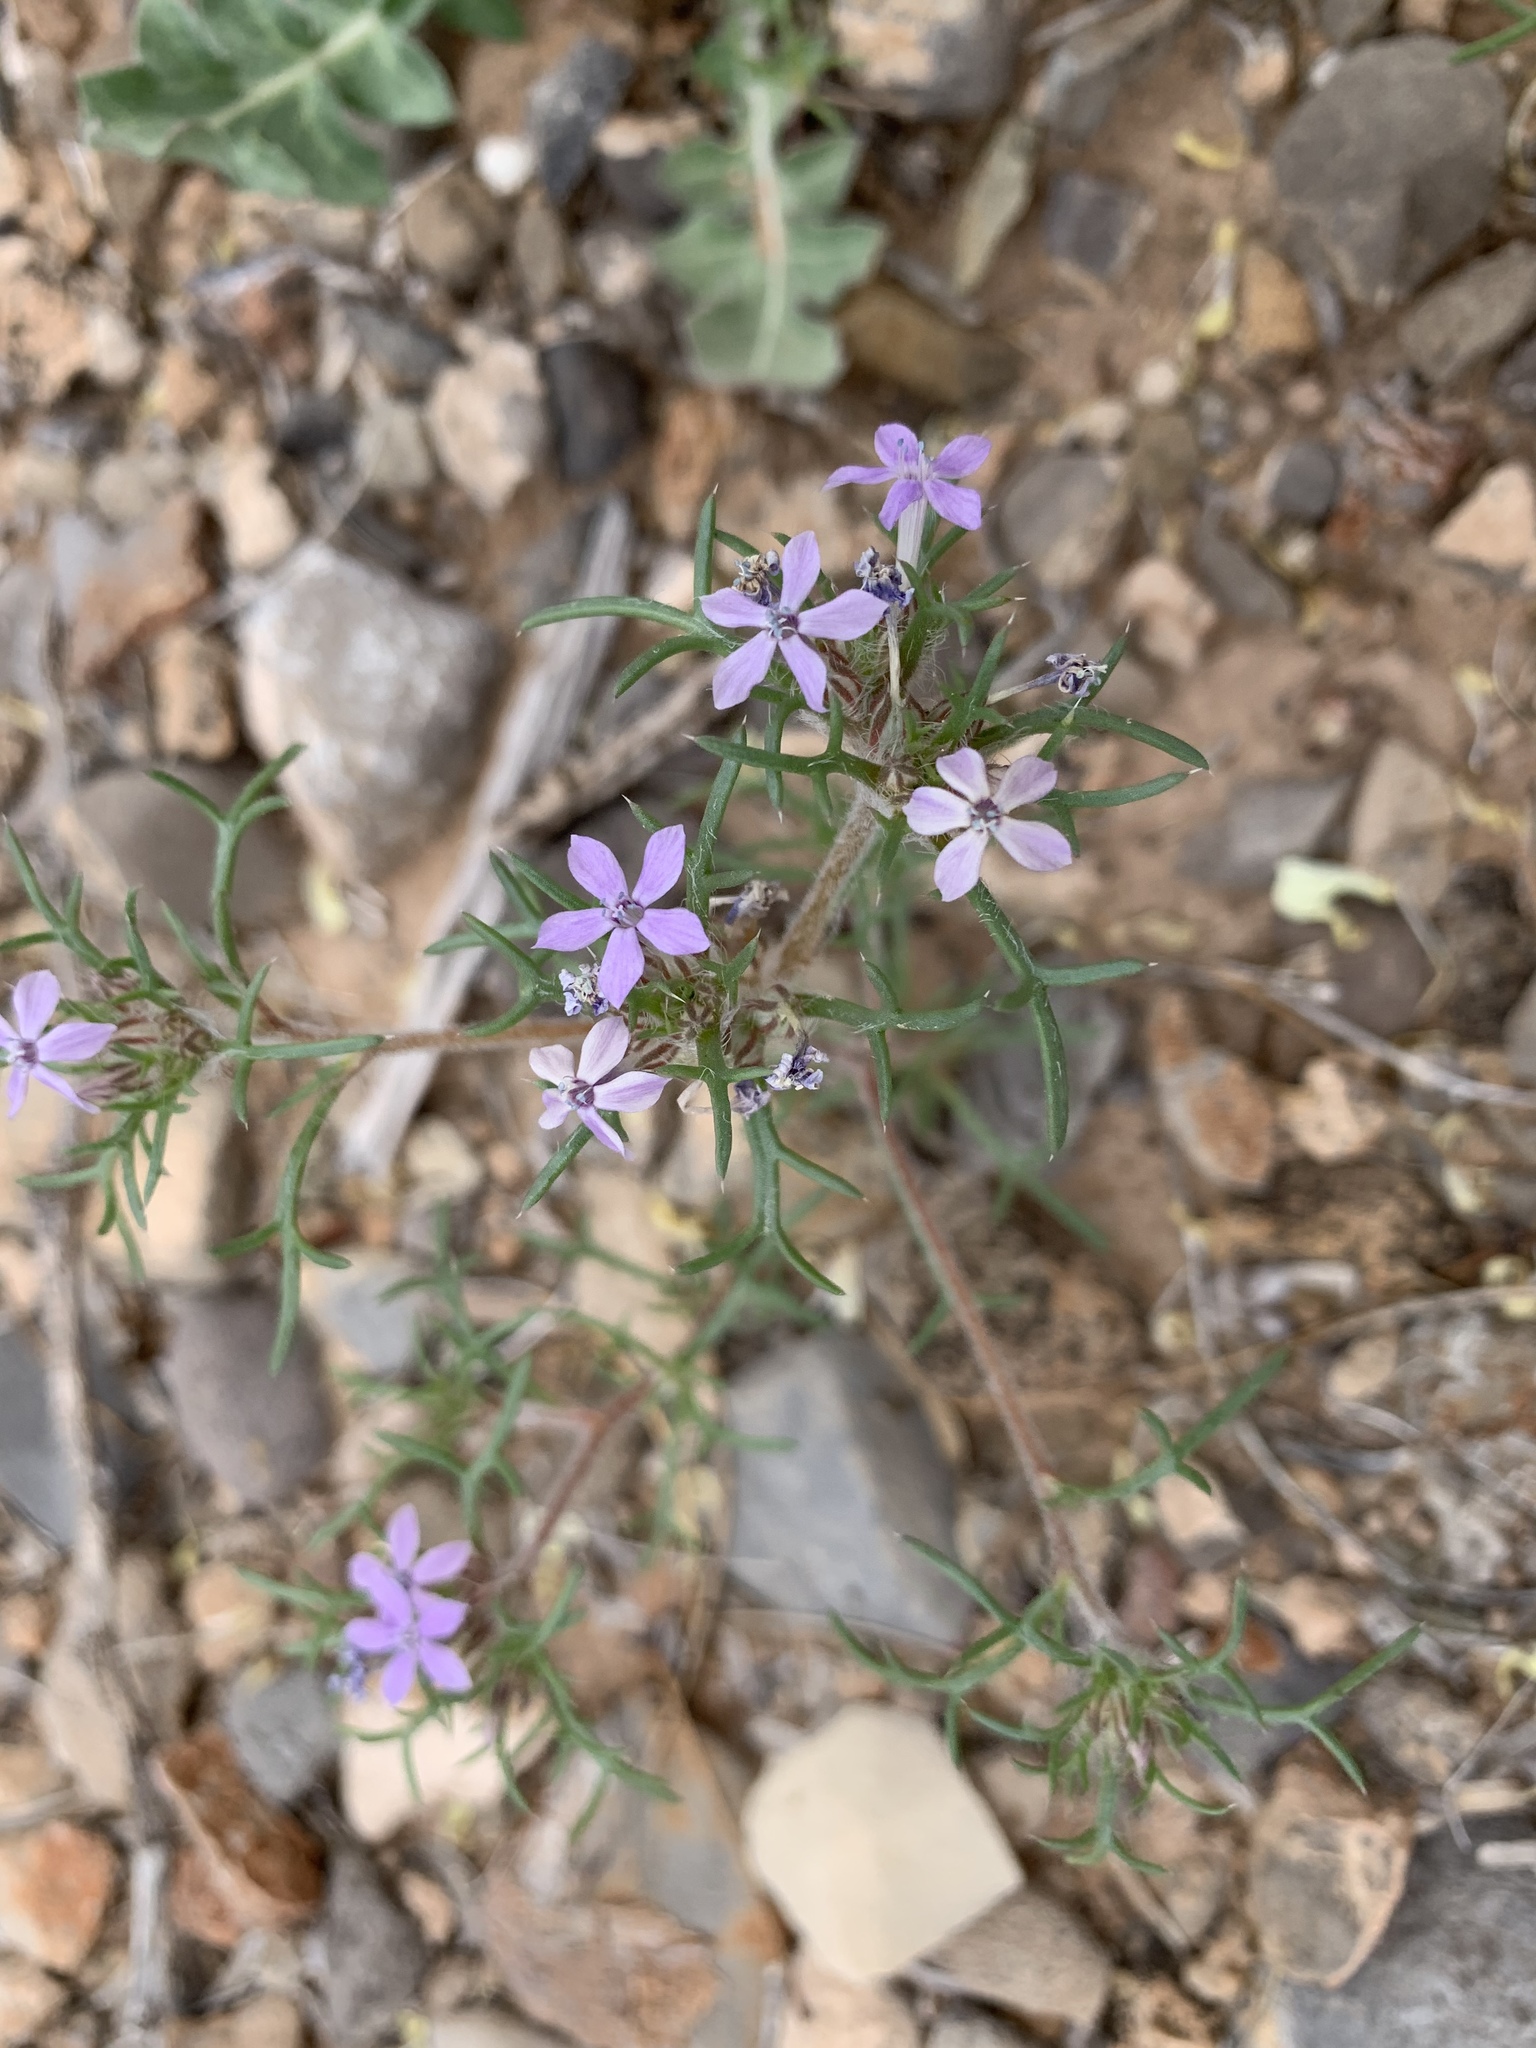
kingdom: Plantae
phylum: Tracheophyta
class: Magnoliopsida
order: Ericales
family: Polemoniaceae
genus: Ipomopsis
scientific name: Ipomopsis pumila
